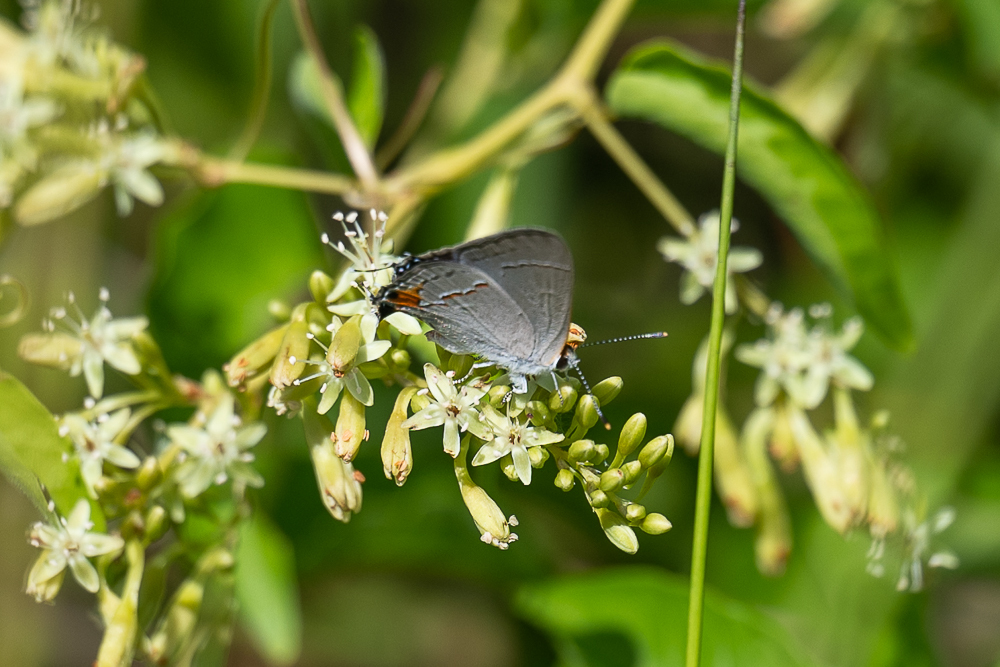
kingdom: Animalia
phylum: Arthropoda
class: Insecta
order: Lepidoptera
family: Lycaenidae
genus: Strymon
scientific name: Strymon melinus
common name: Gray hairstreak
